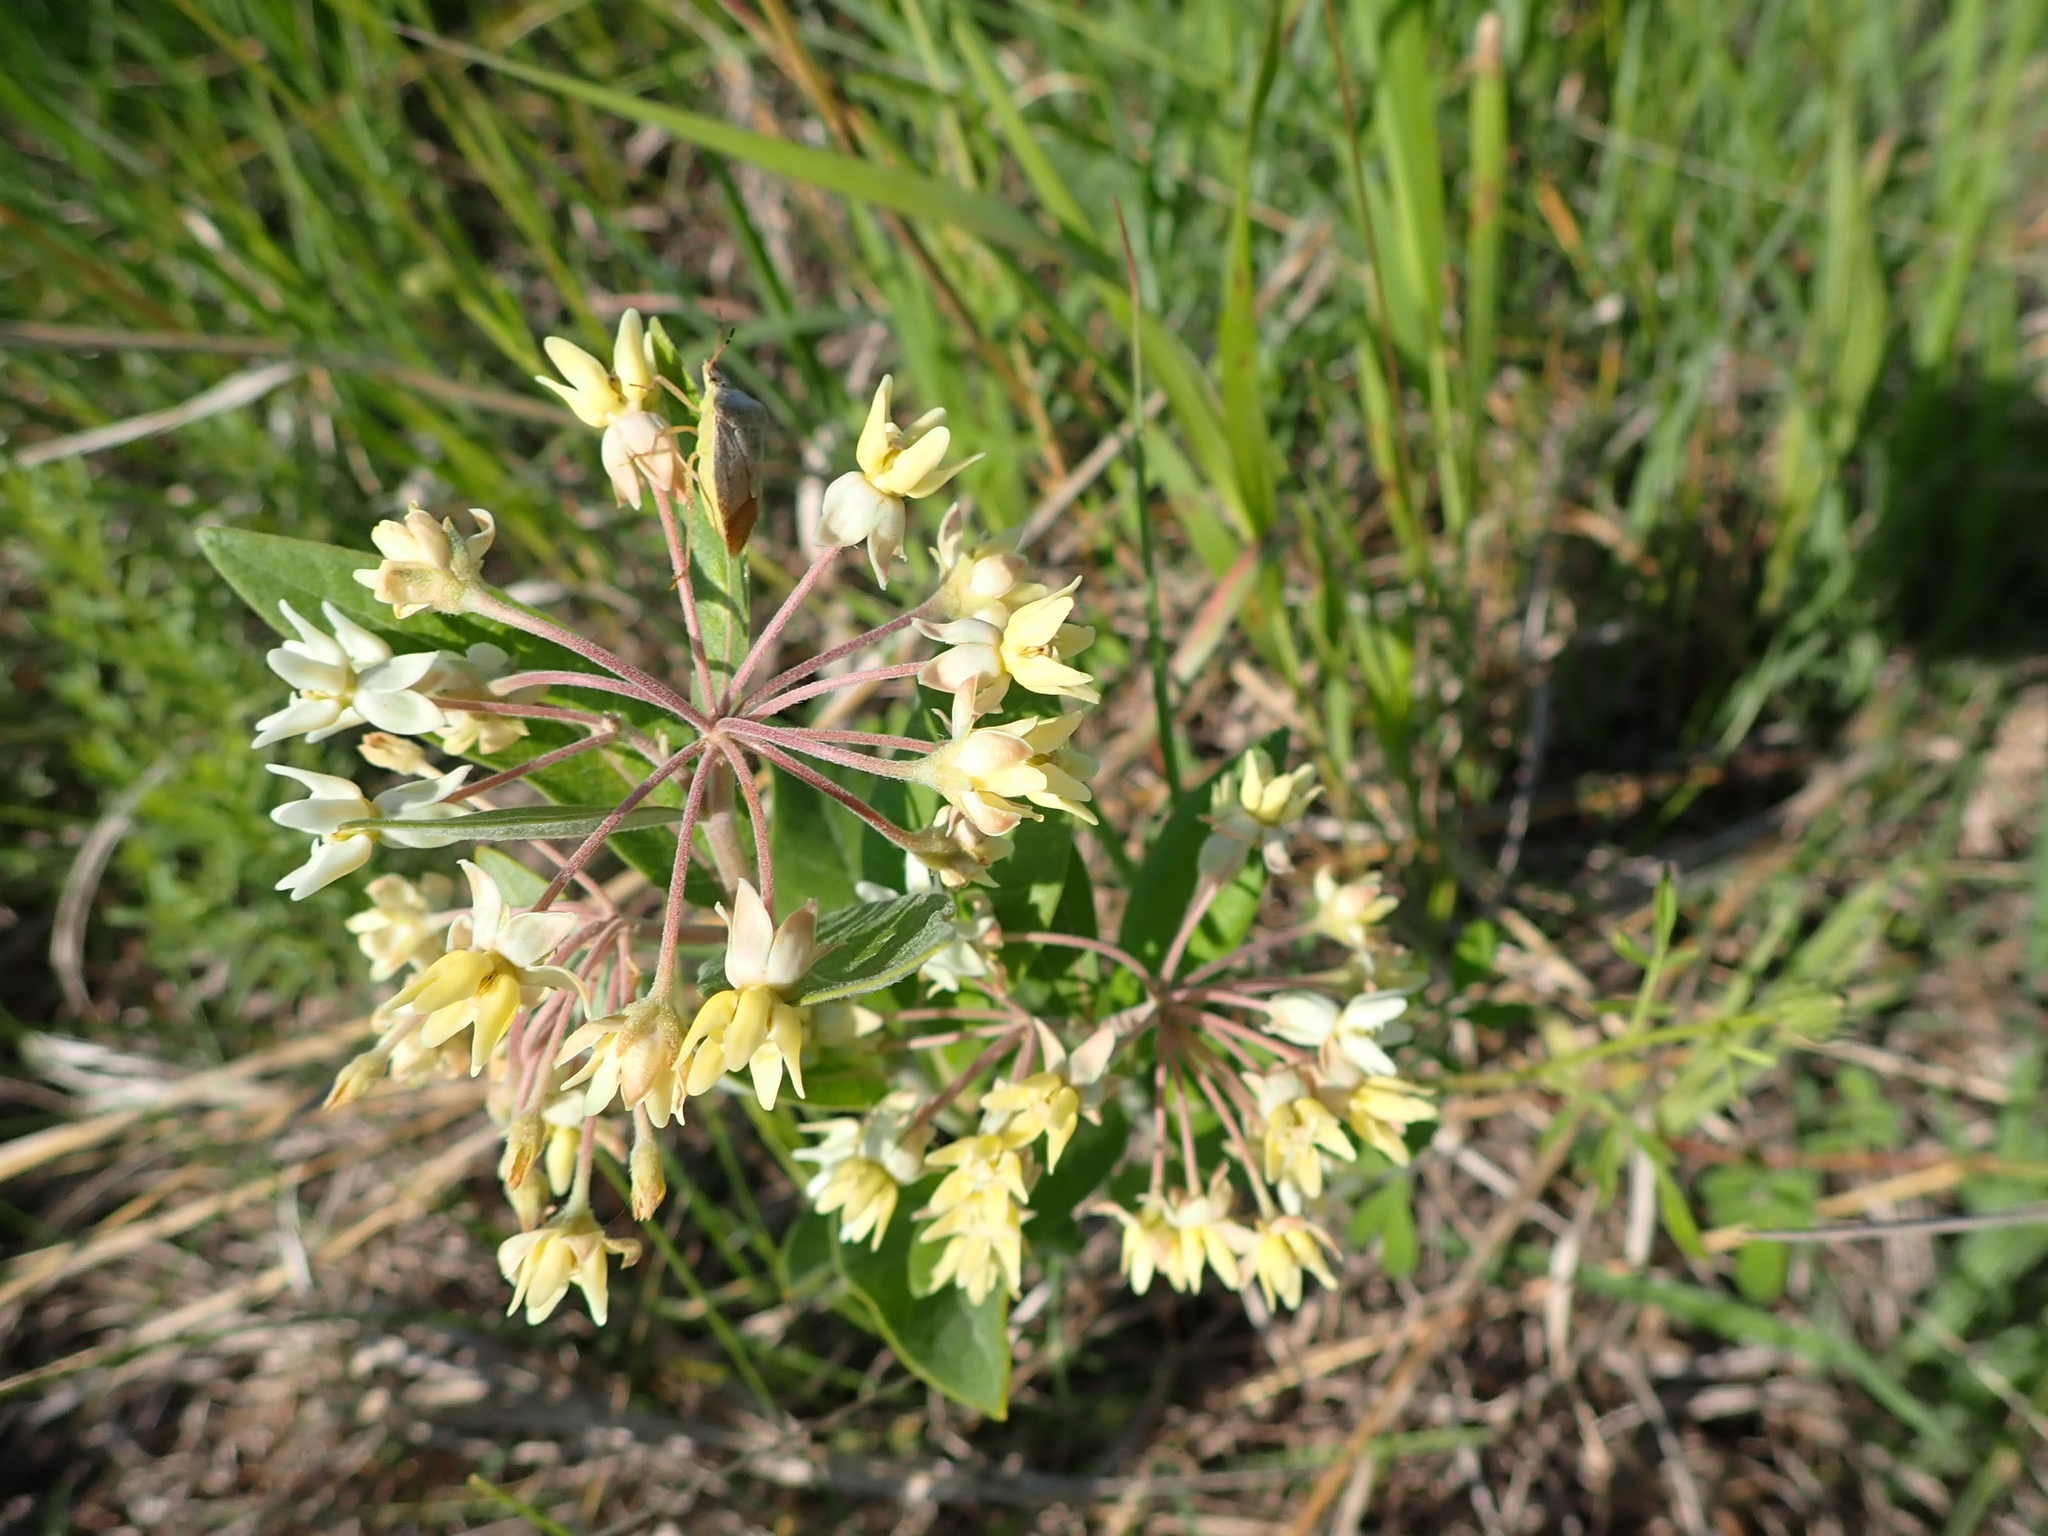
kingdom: Plantae
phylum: Tracheophyta
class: Magnoliopsida
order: Gentianales
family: Apocynaceae
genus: Asclepias
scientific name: Asclepias ovalifolia
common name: Dwarf milkweed
